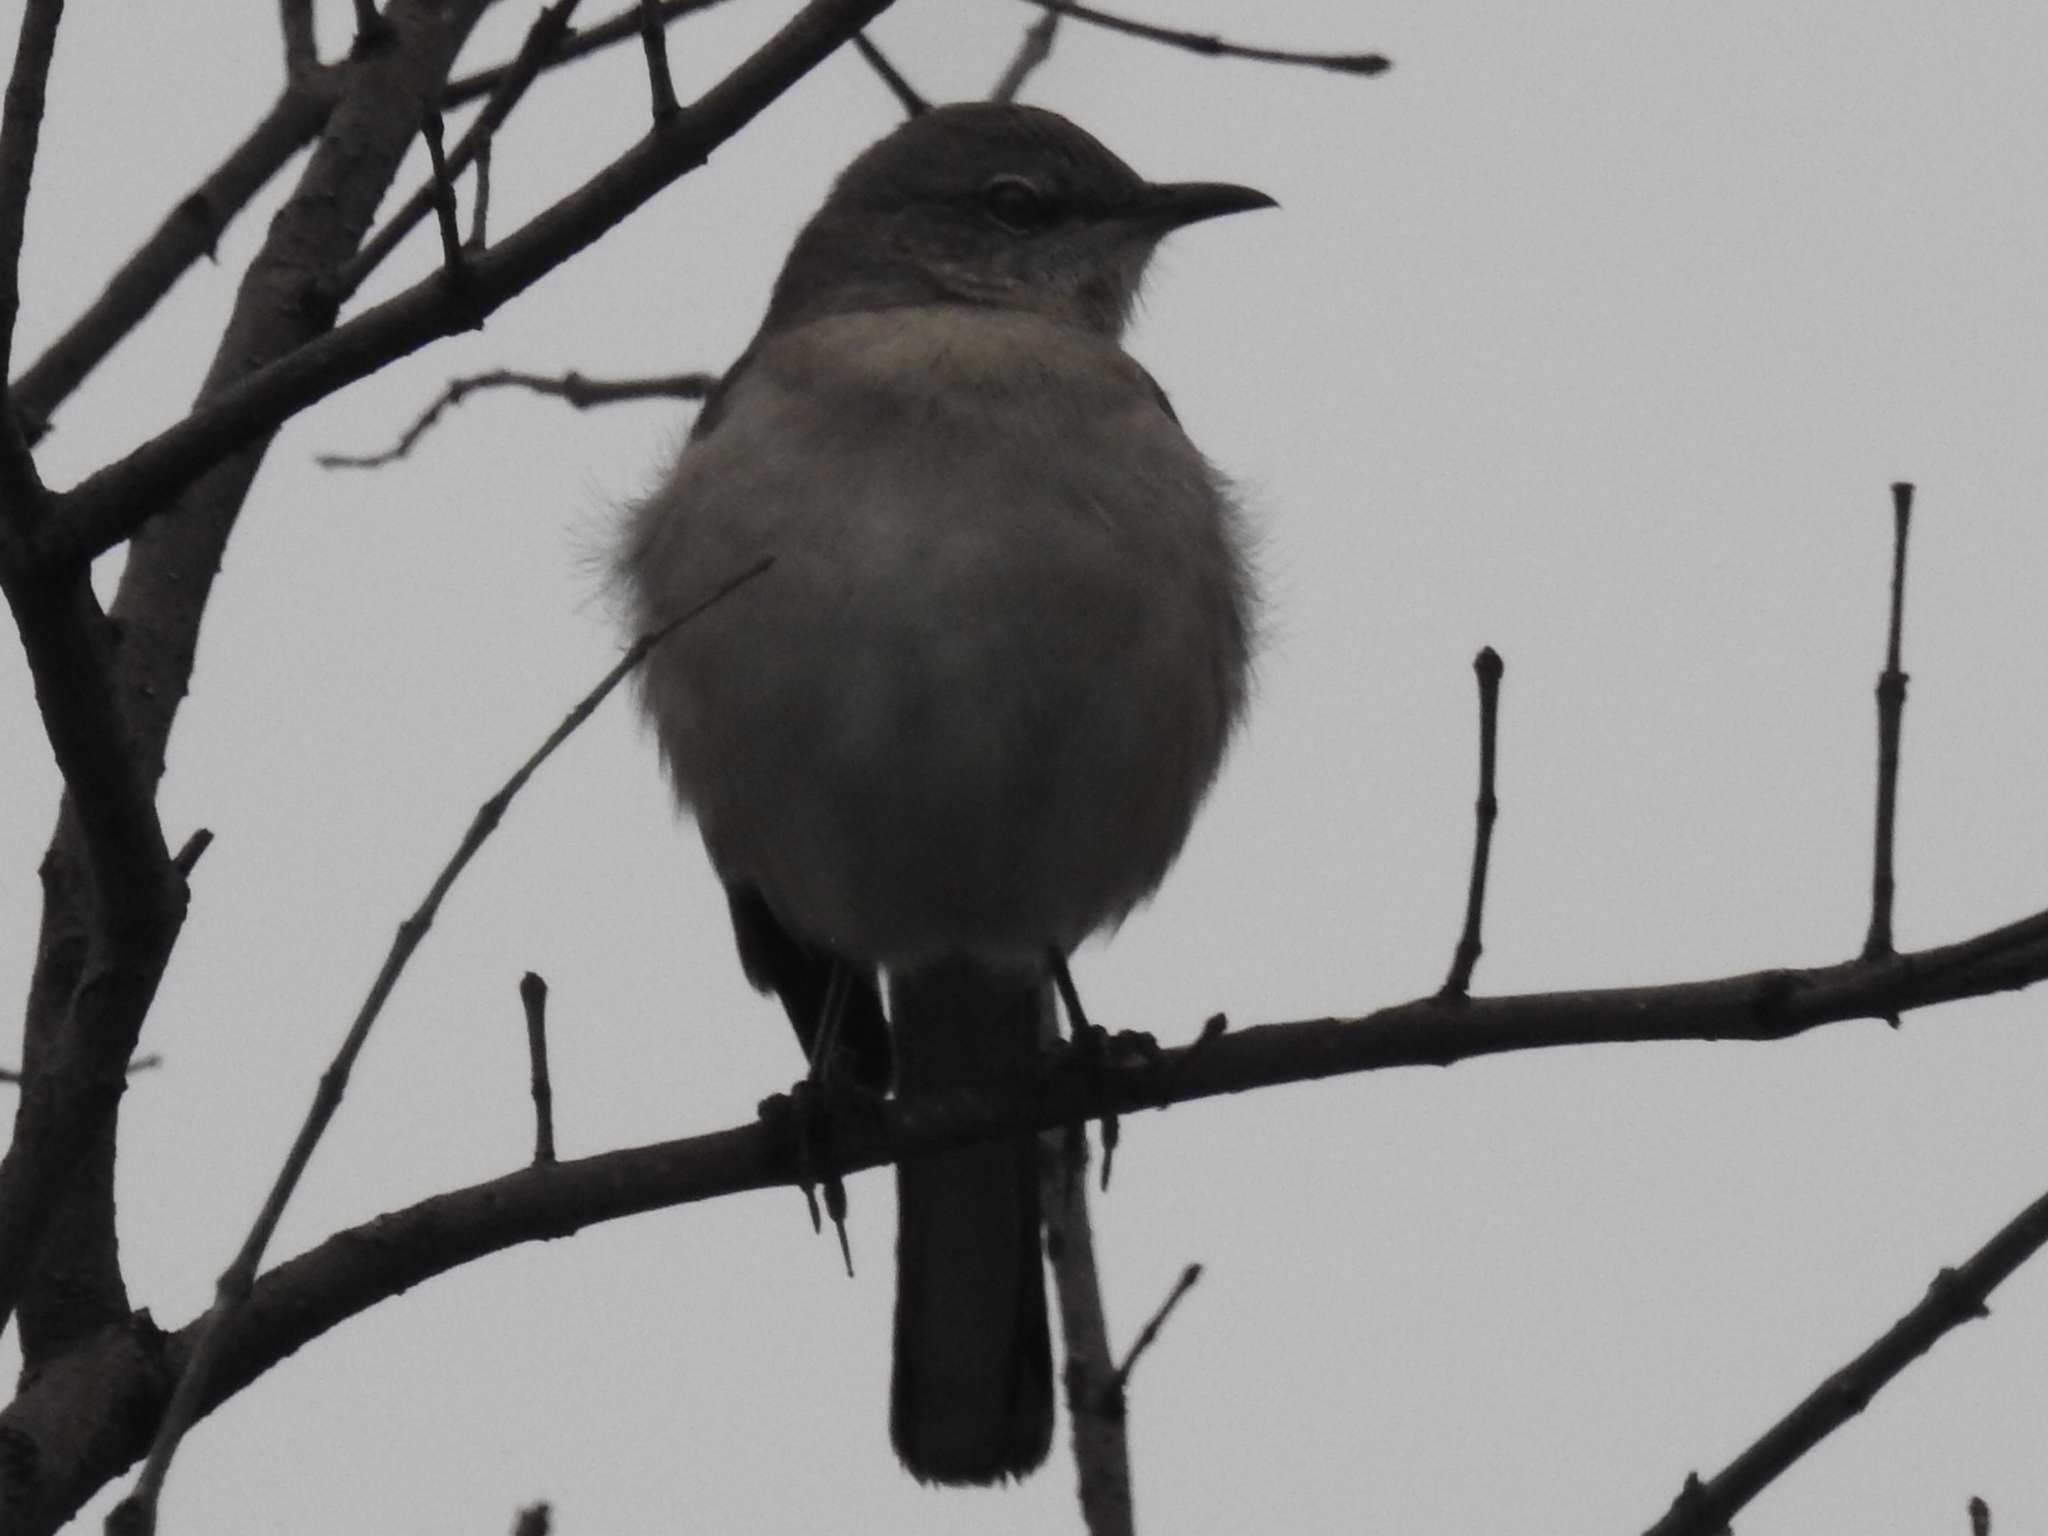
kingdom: Animalia
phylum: Chordata
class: Aves
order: Passeriformes
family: Mimidae
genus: Mimus
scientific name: Mimus polyglottos
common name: Northern mockingbird
